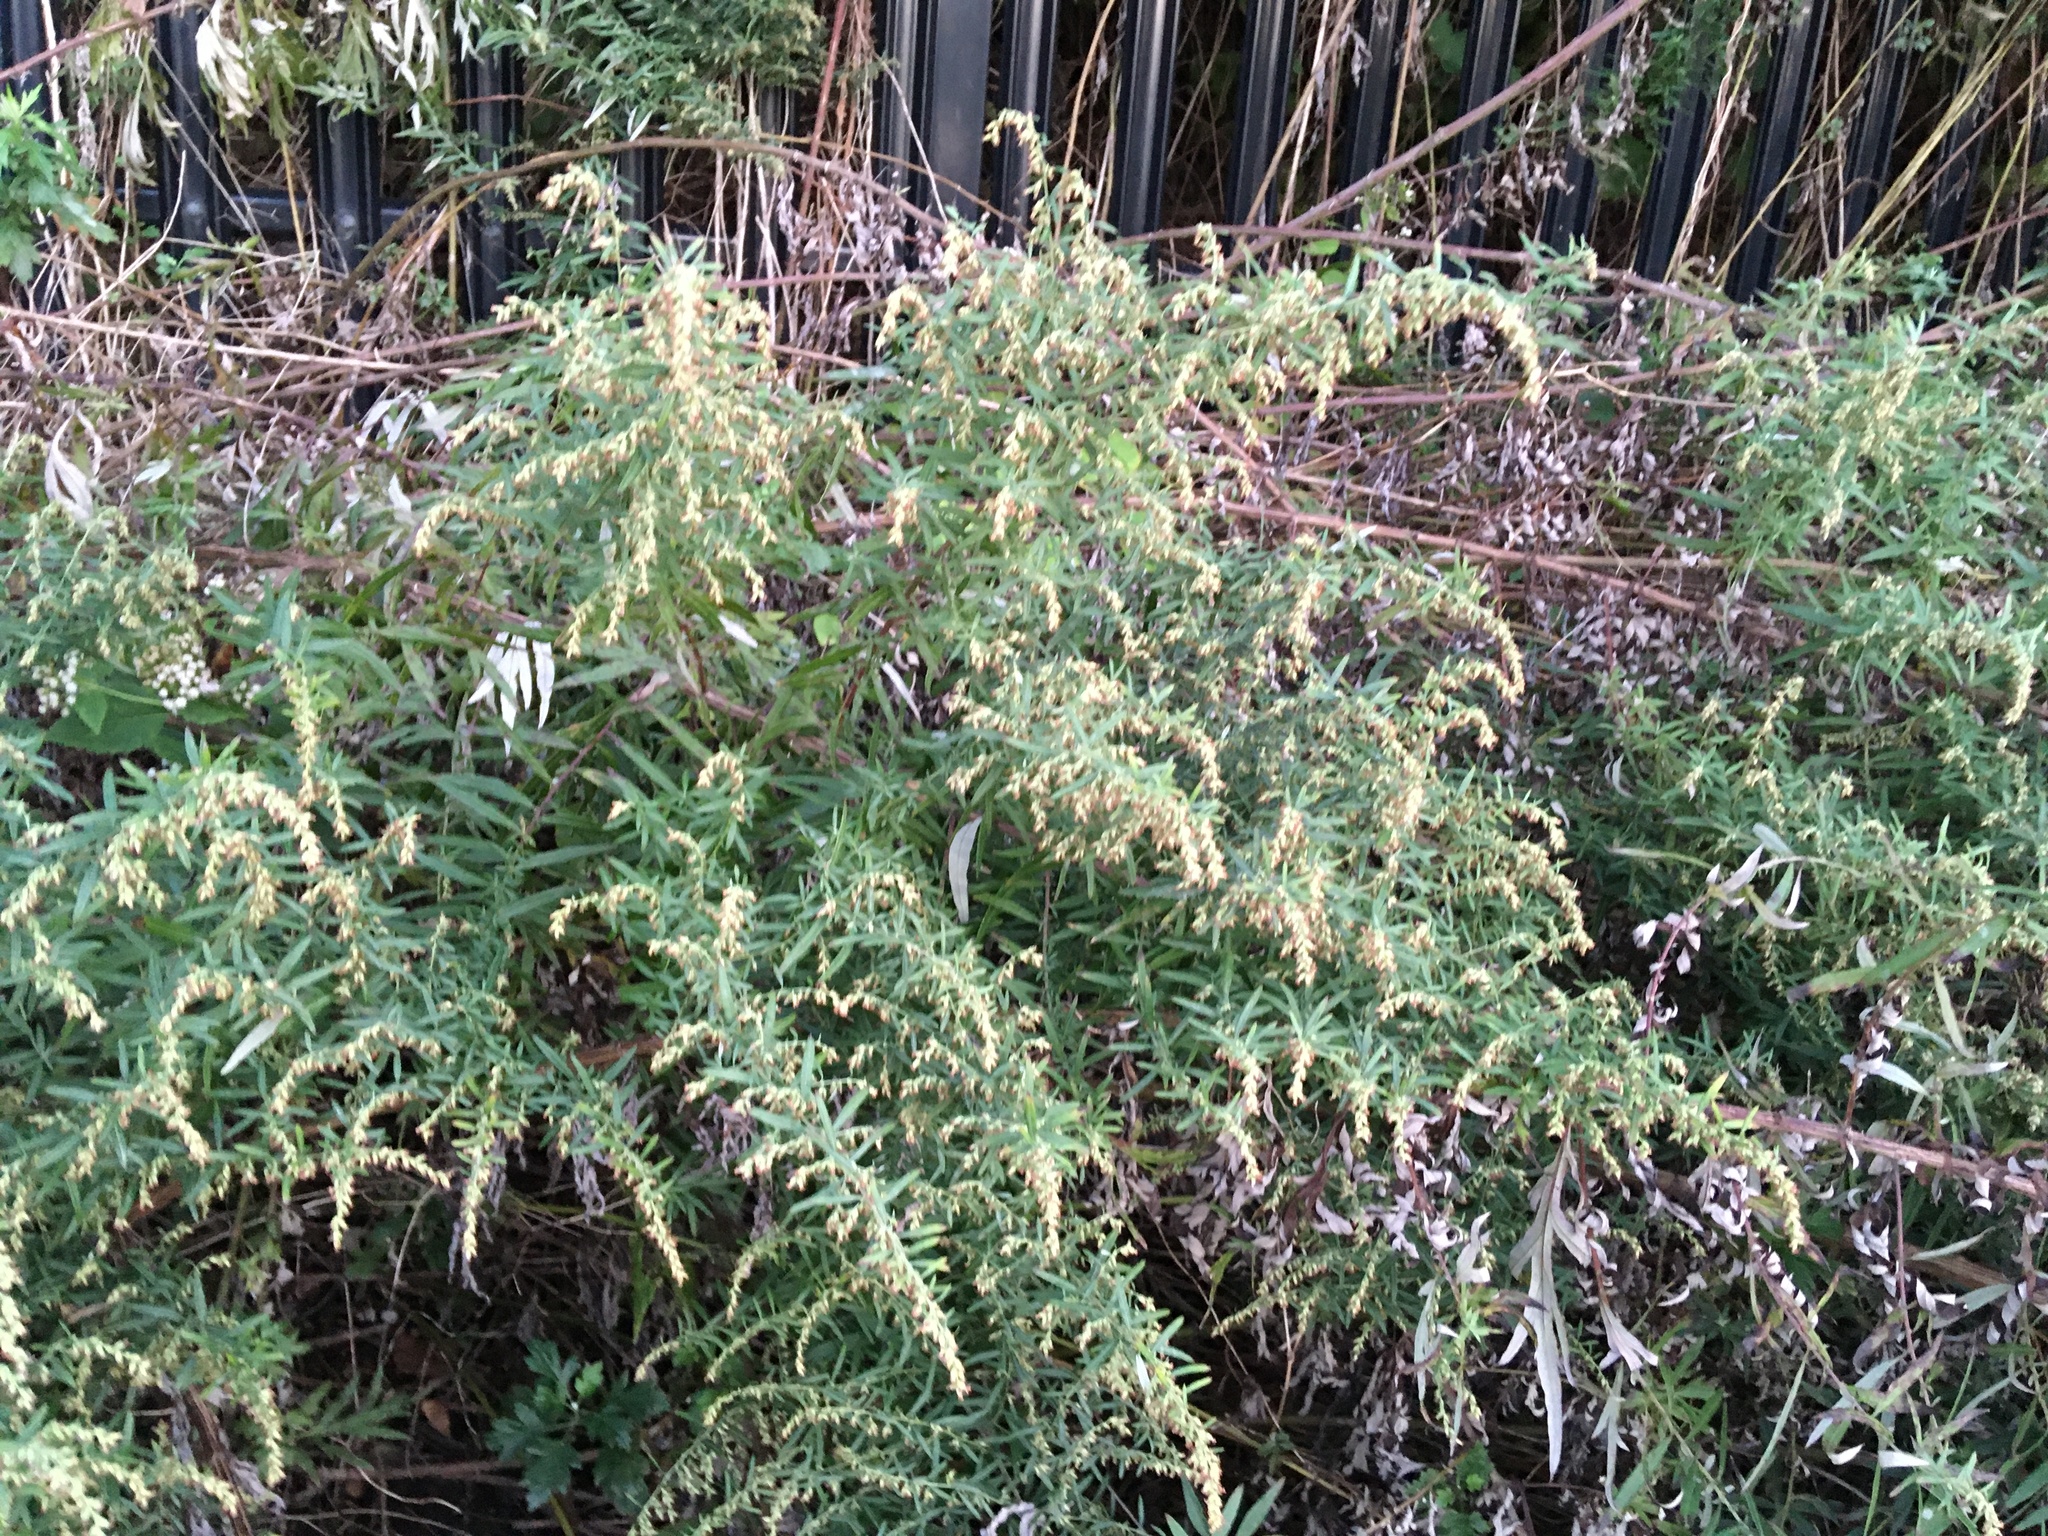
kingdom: Plantae
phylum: Tracheophyta
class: Magnoliopsida
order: Asterales
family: Asteraceae
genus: Artemisia
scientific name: Artemisia vulgaris
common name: Mugwort
